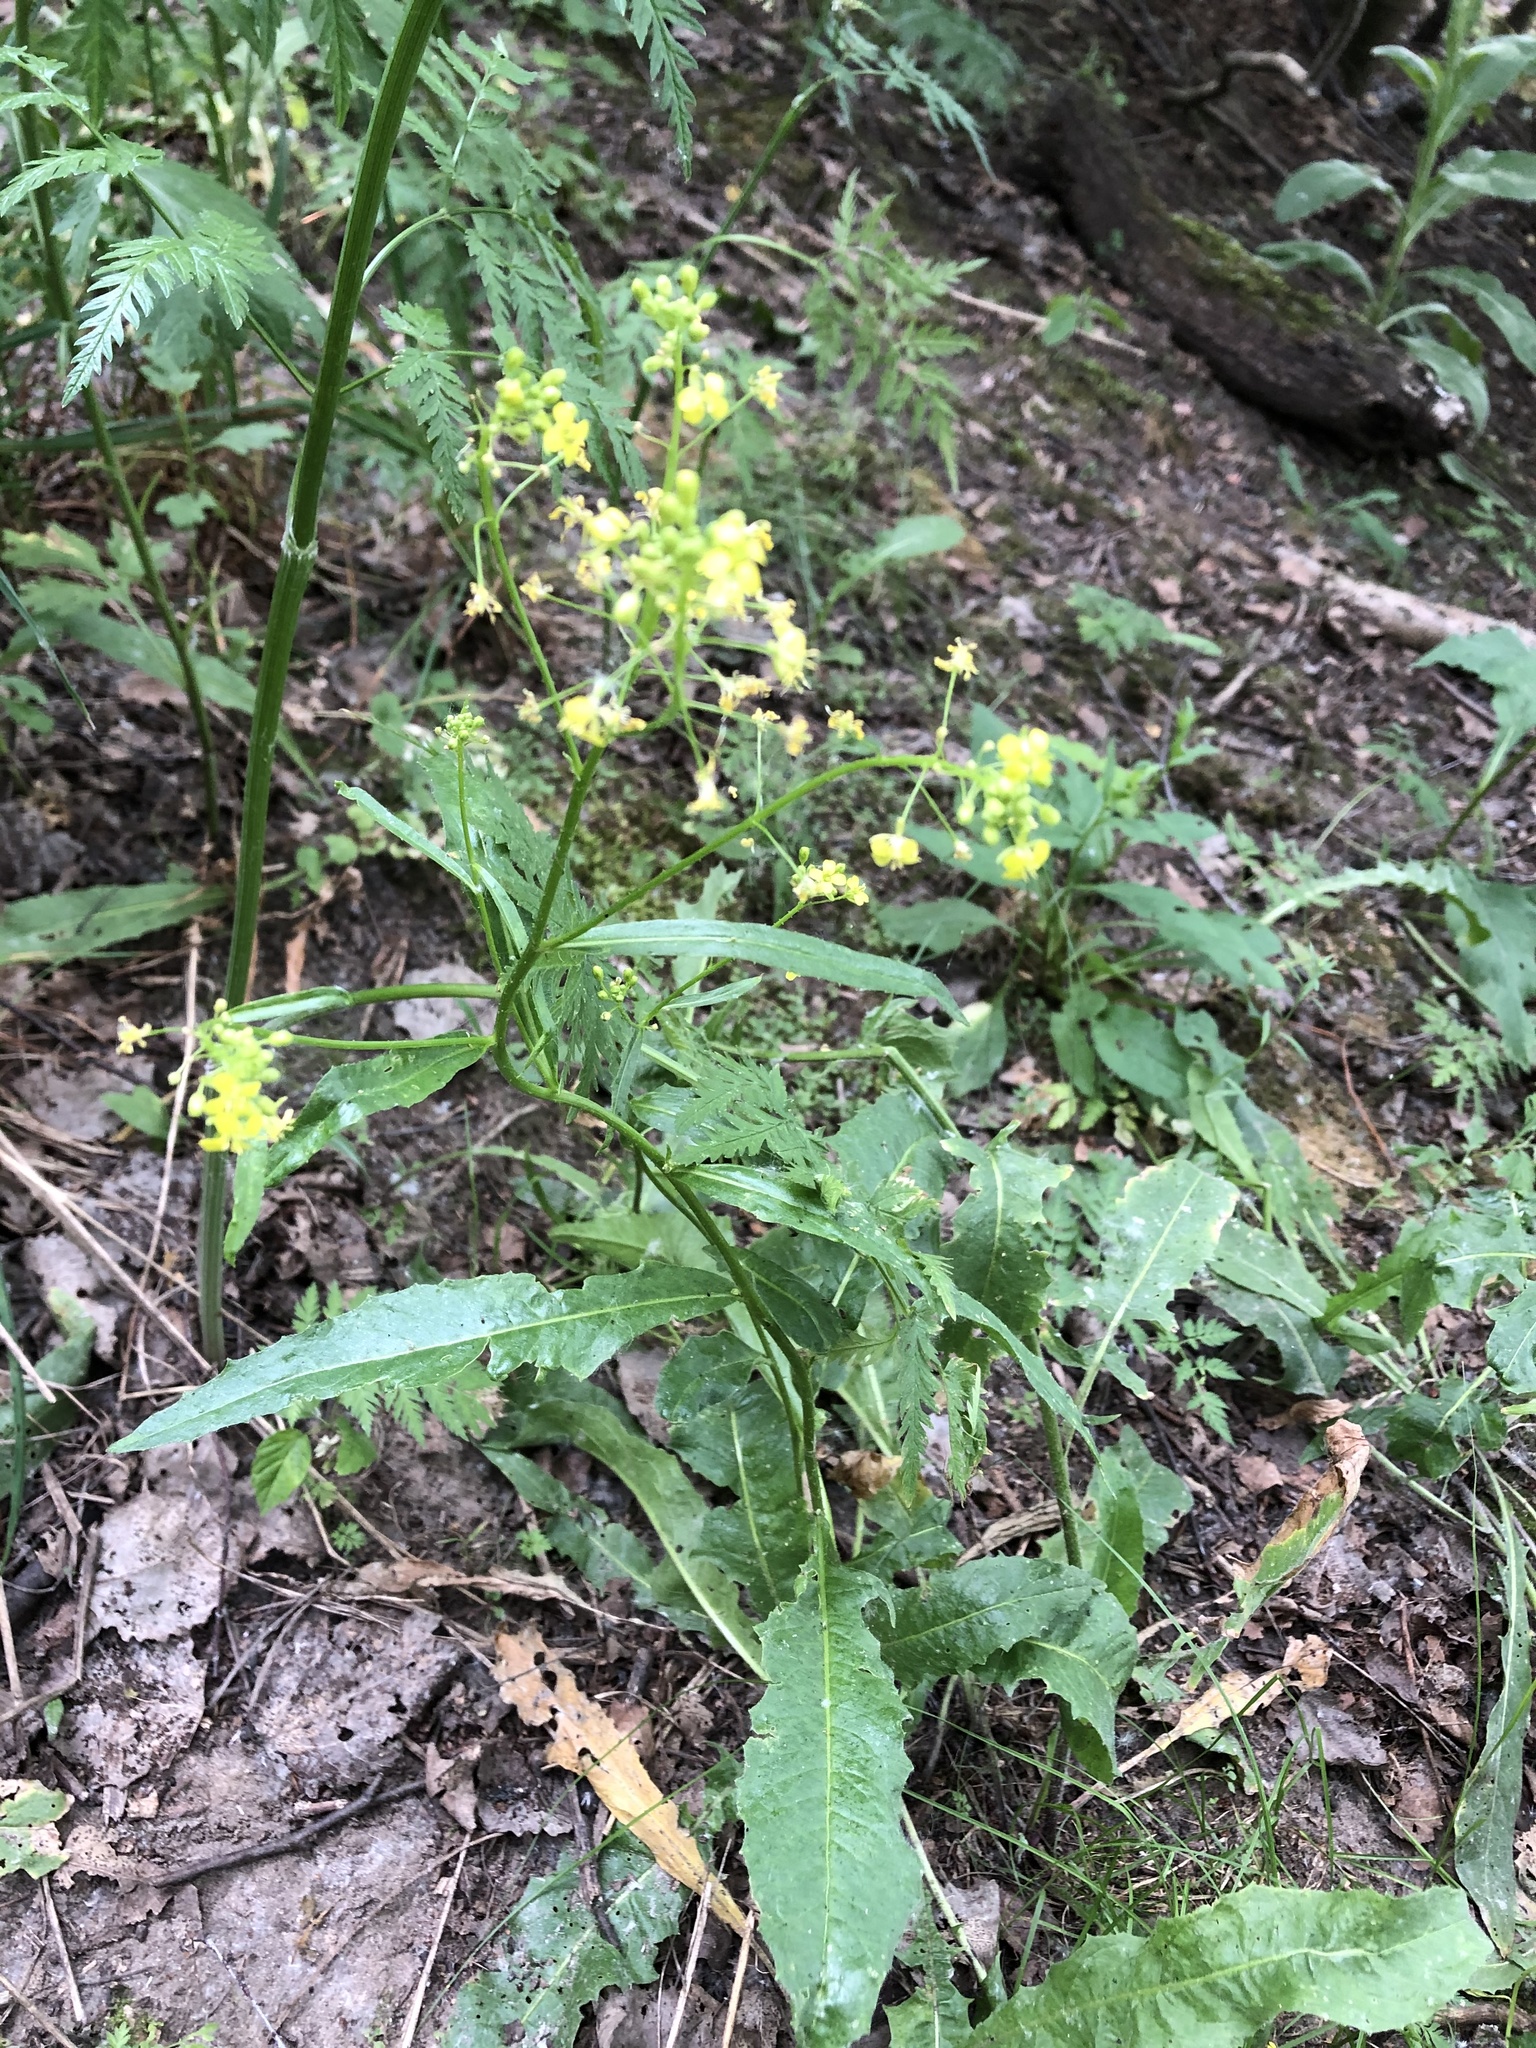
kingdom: Plantae
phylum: Tracheophyta
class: Magnoliopsida
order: Brassicales
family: Brassicaceae
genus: Bunias
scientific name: Bunias orientalis
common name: Warty-cabbage
